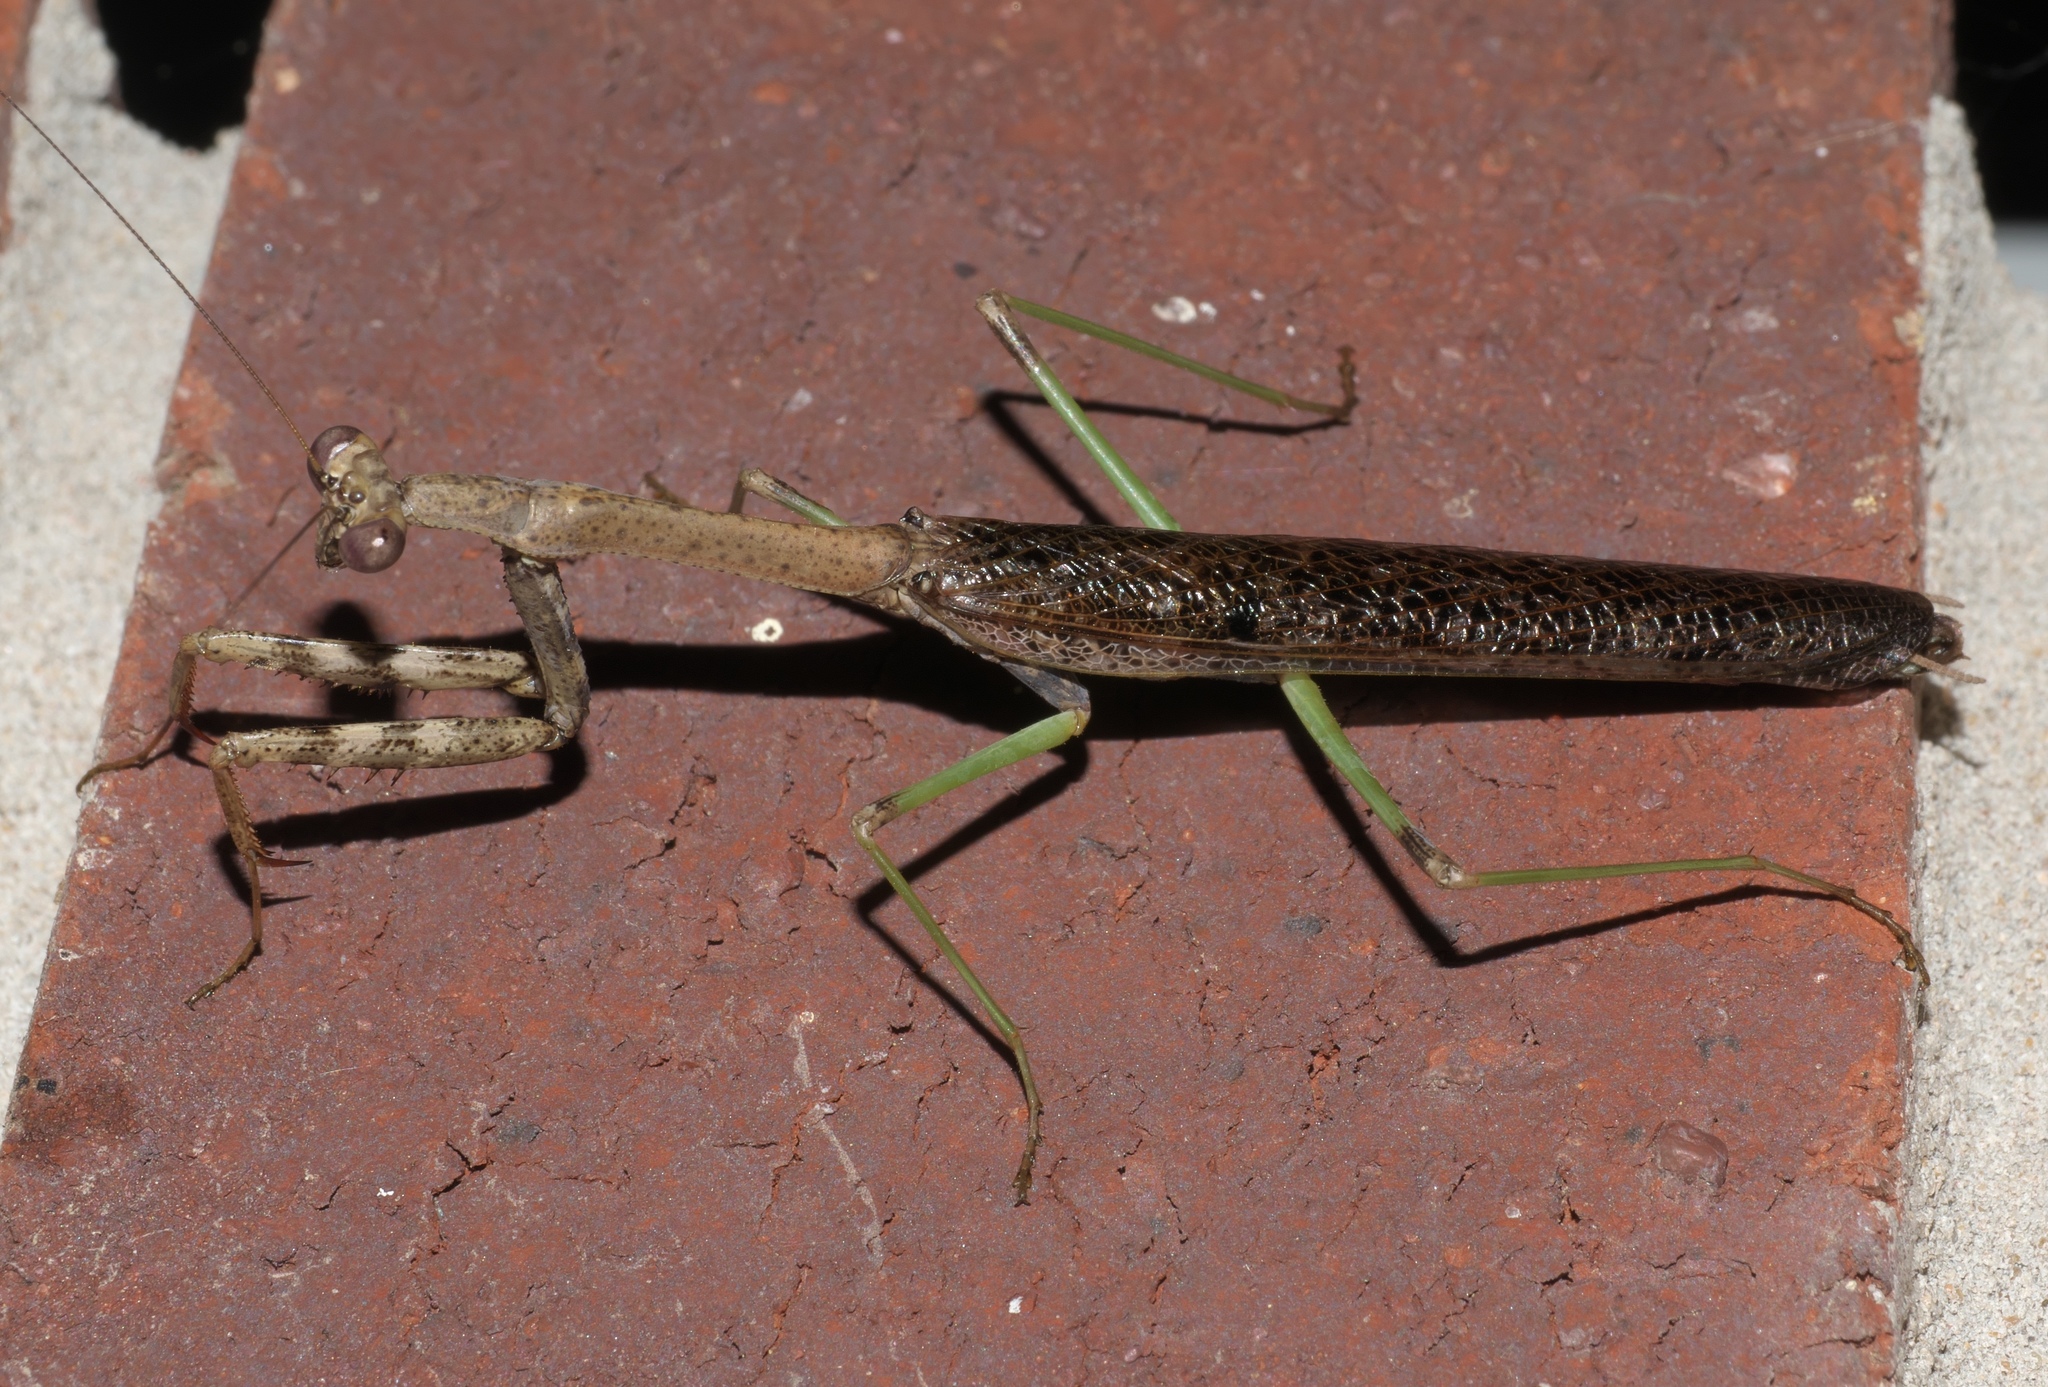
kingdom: Animalia
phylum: Arthropoda
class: Insecta
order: Mantodea
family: Mantidae
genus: Stagmomantis
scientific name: Stagmomantis carolina
